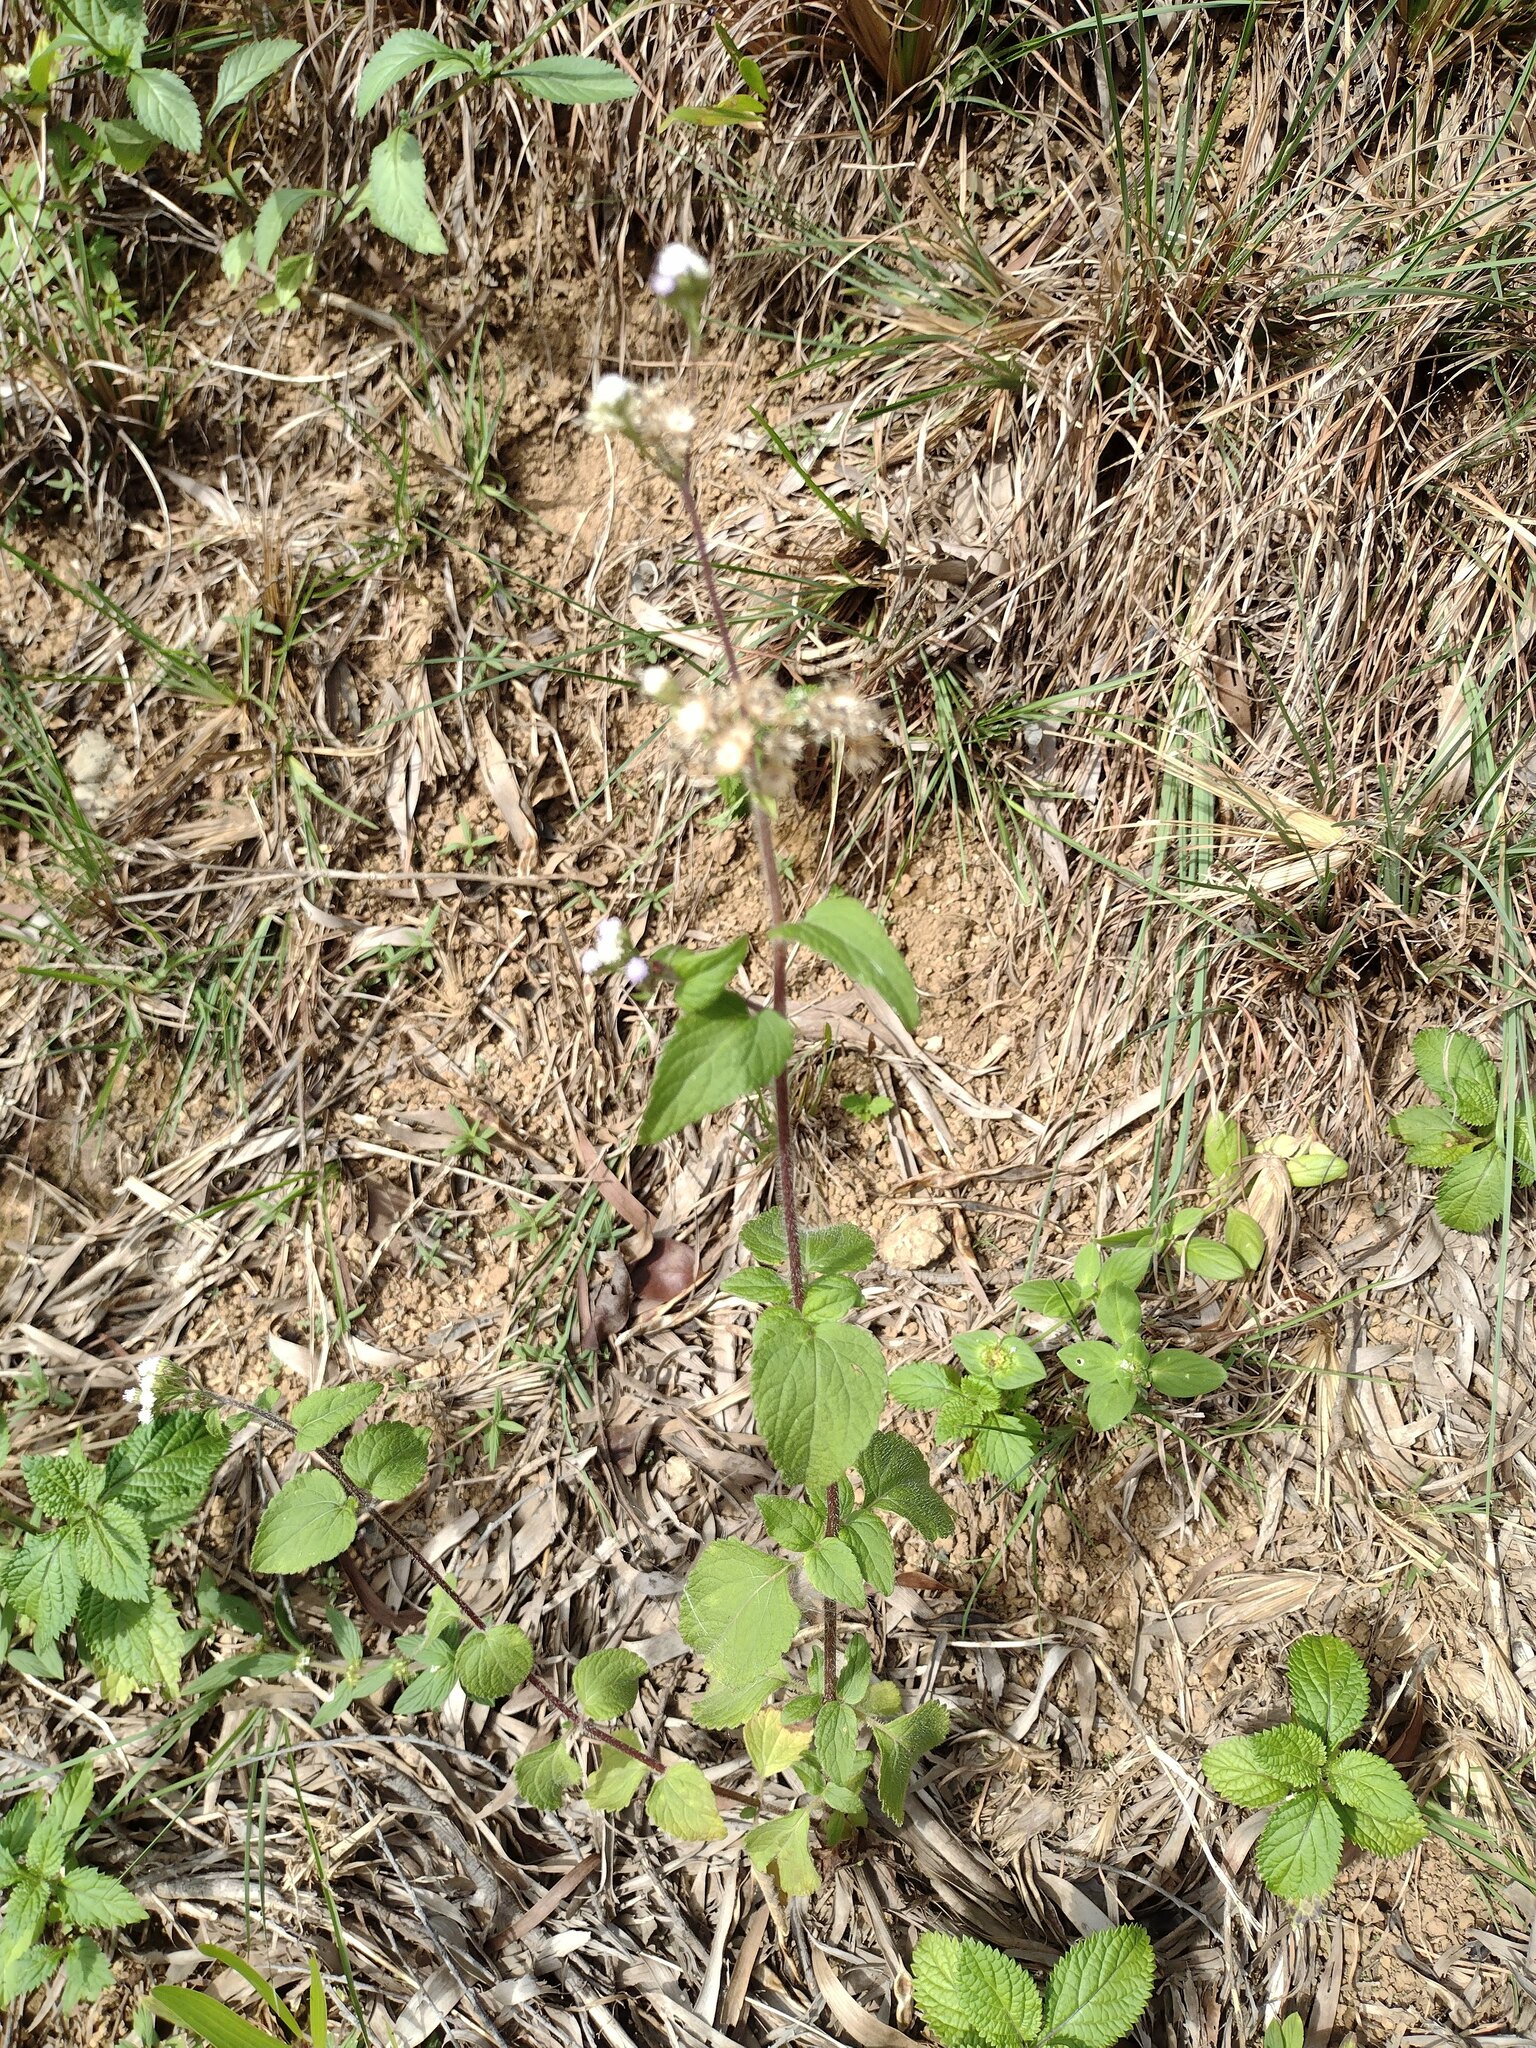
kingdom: Plantae
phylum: Tracheophyta
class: Magnoliopsida
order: Asterales
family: Asteraceae
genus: Ageratum
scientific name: Ageratum conyzoides
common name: Tropical whiteweed
